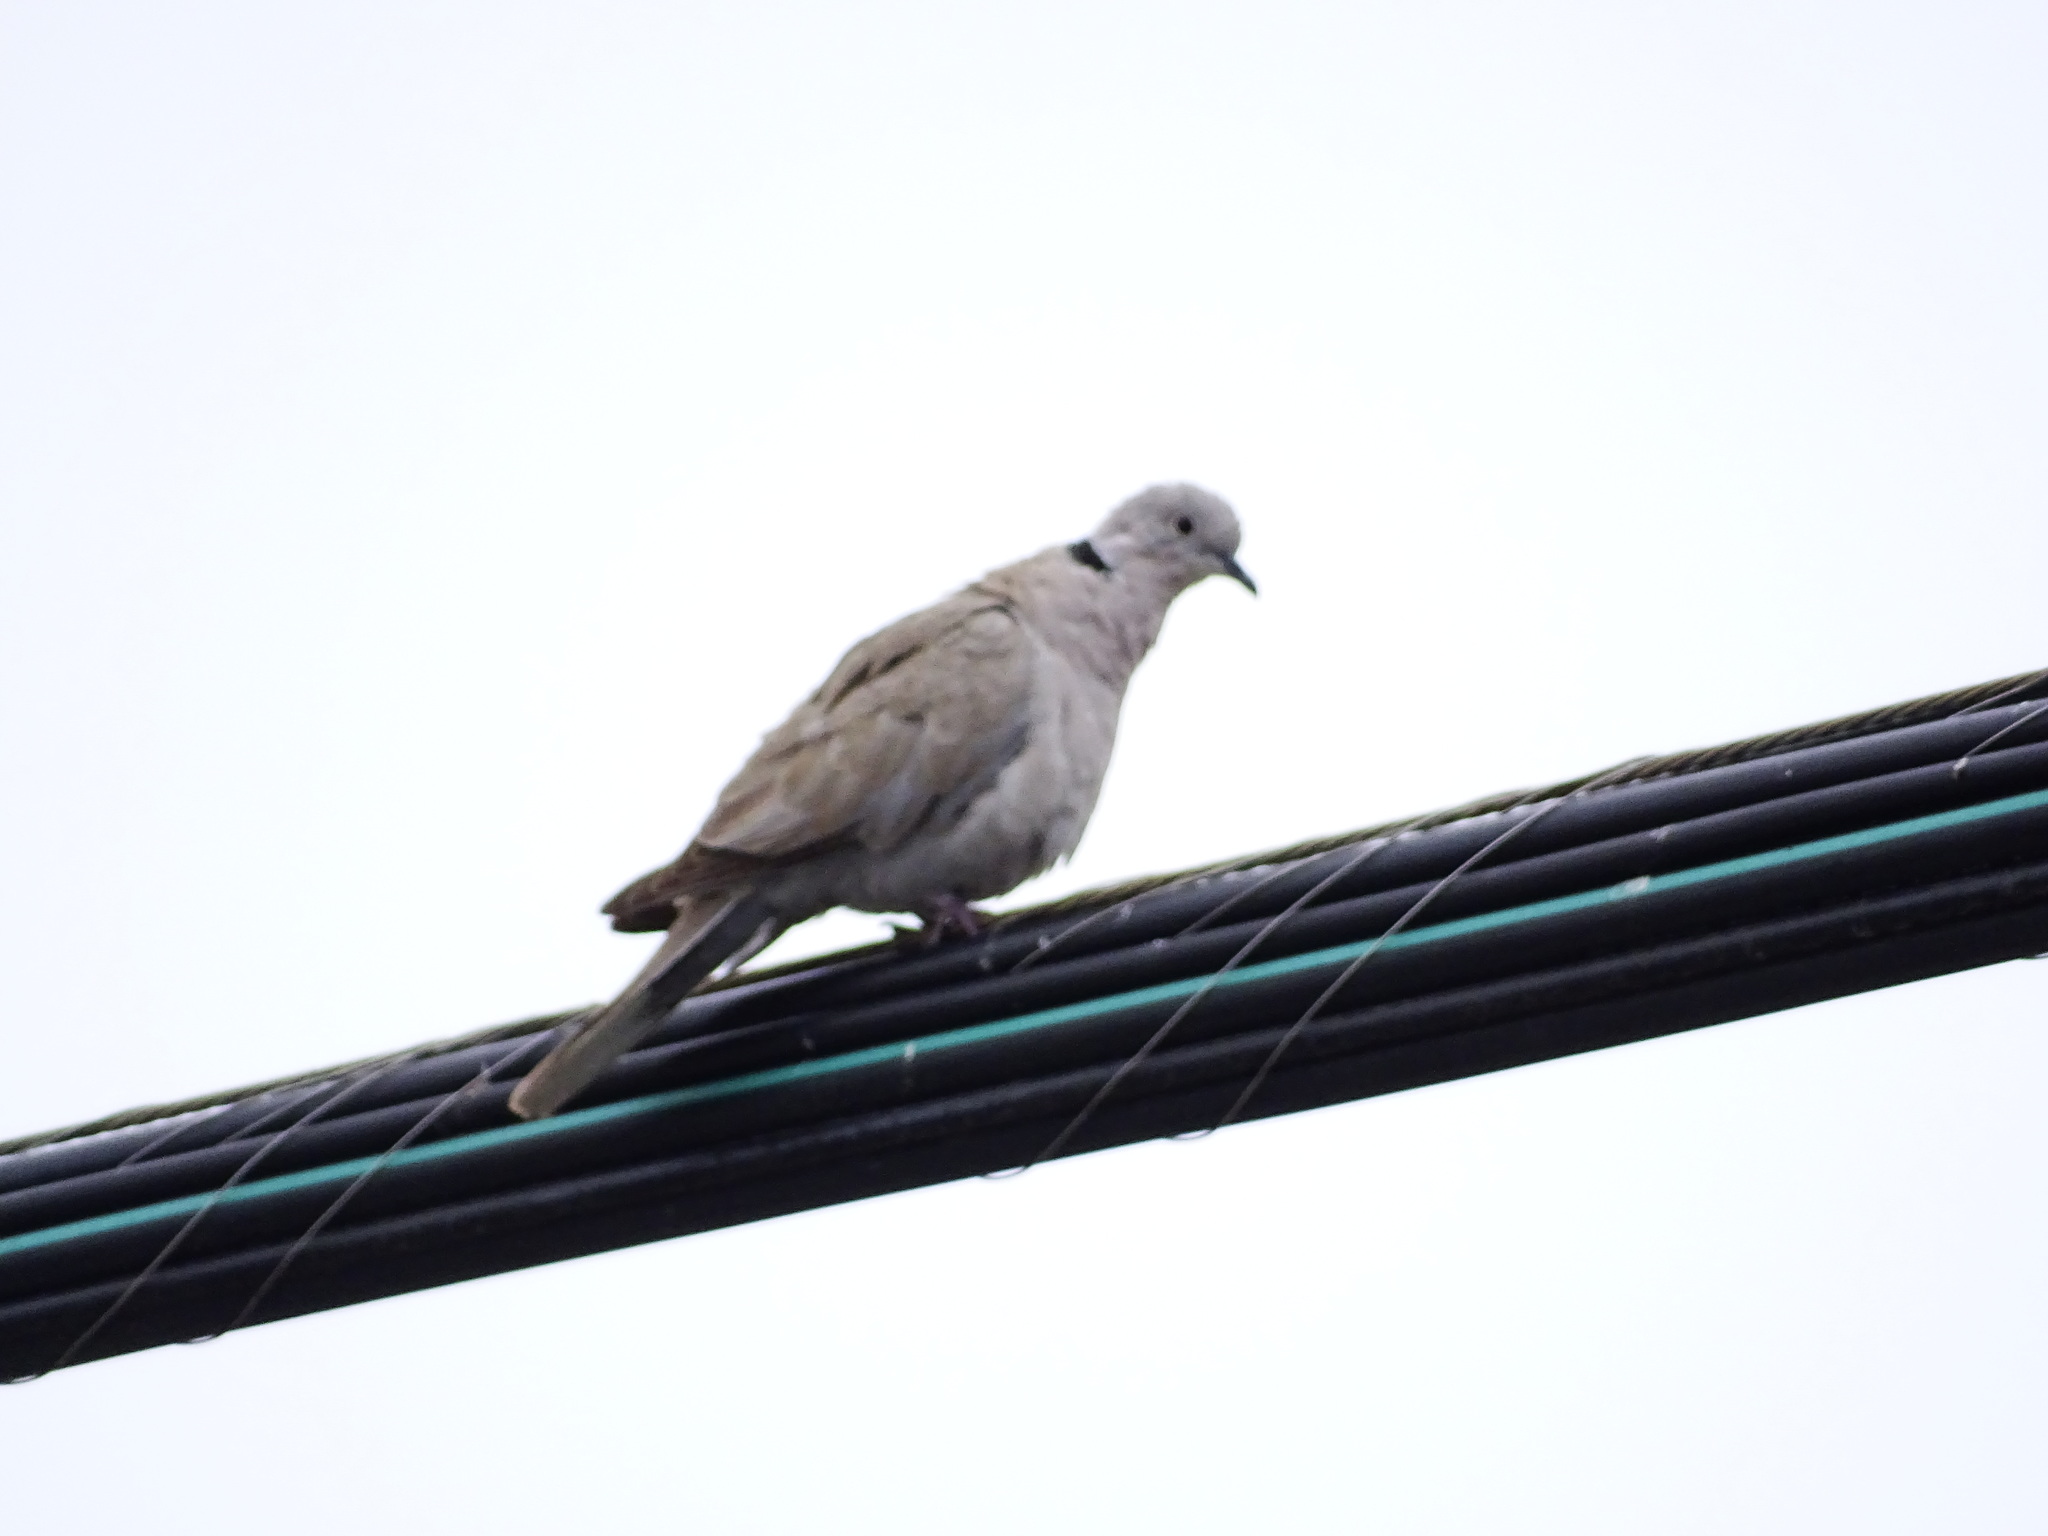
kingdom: Animalia
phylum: Chordata
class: Aves
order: Columbiformes
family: Columbidae
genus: Streptopelia
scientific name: Streptopelia decaocto
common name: Eurasian collared dove
